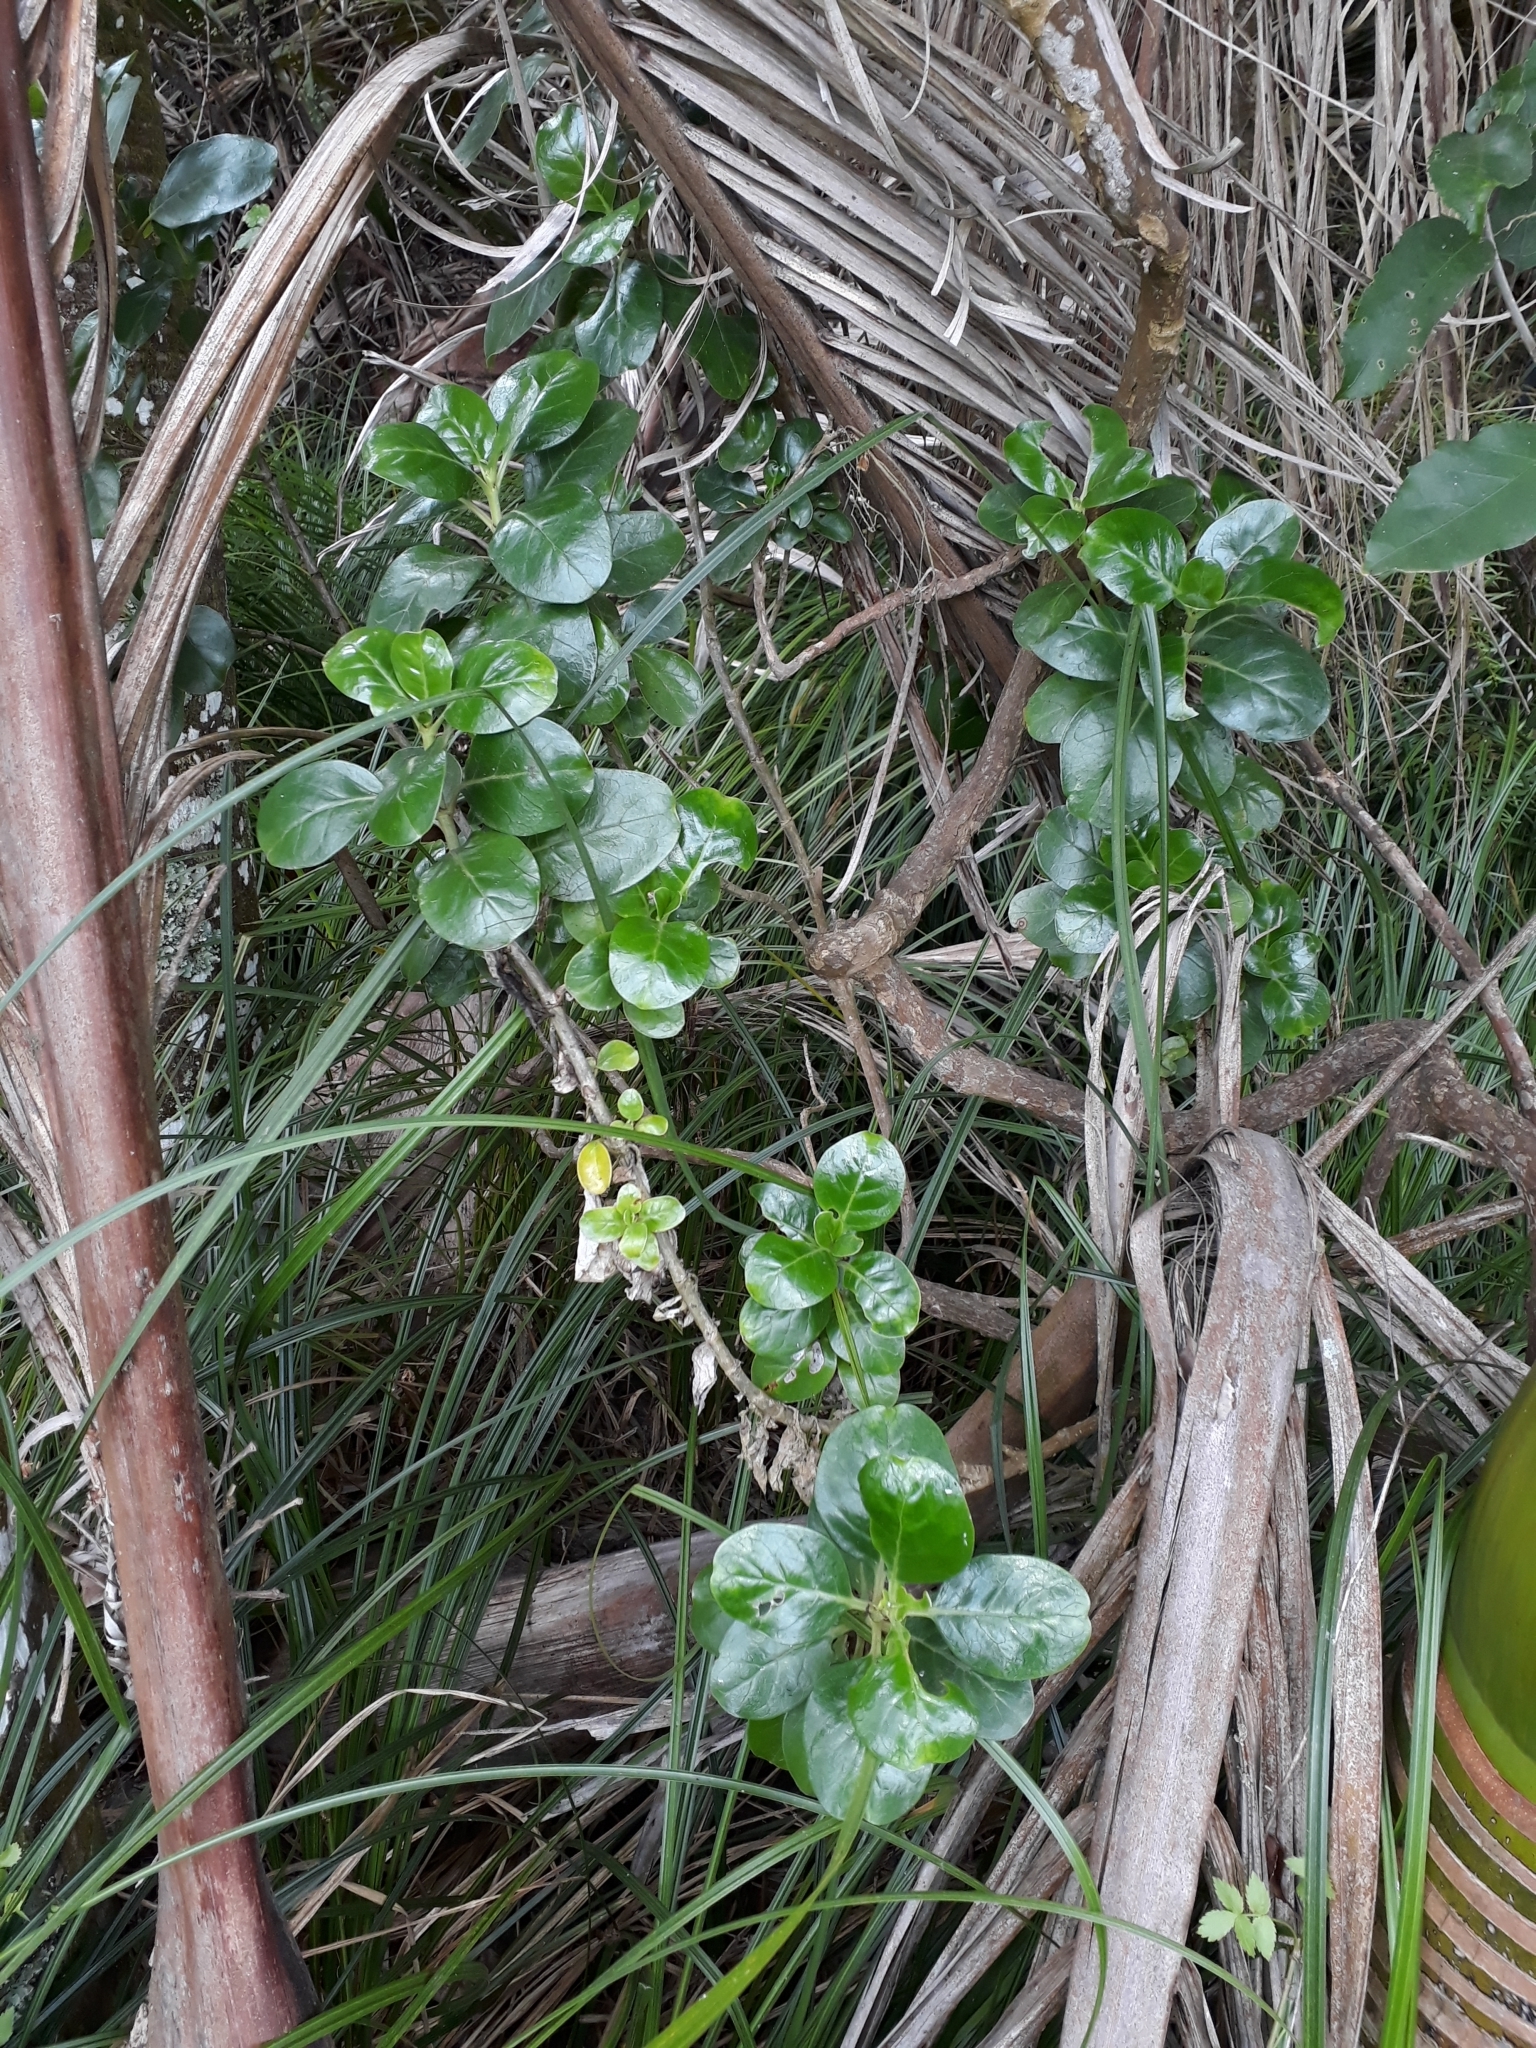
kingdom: Plantae
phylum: Tracheophyta
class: Magnoliopsida
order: Gentianales
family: Rubiaceae
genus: Coprosma
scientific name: Coprosma repens
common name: Tree bedstraw
